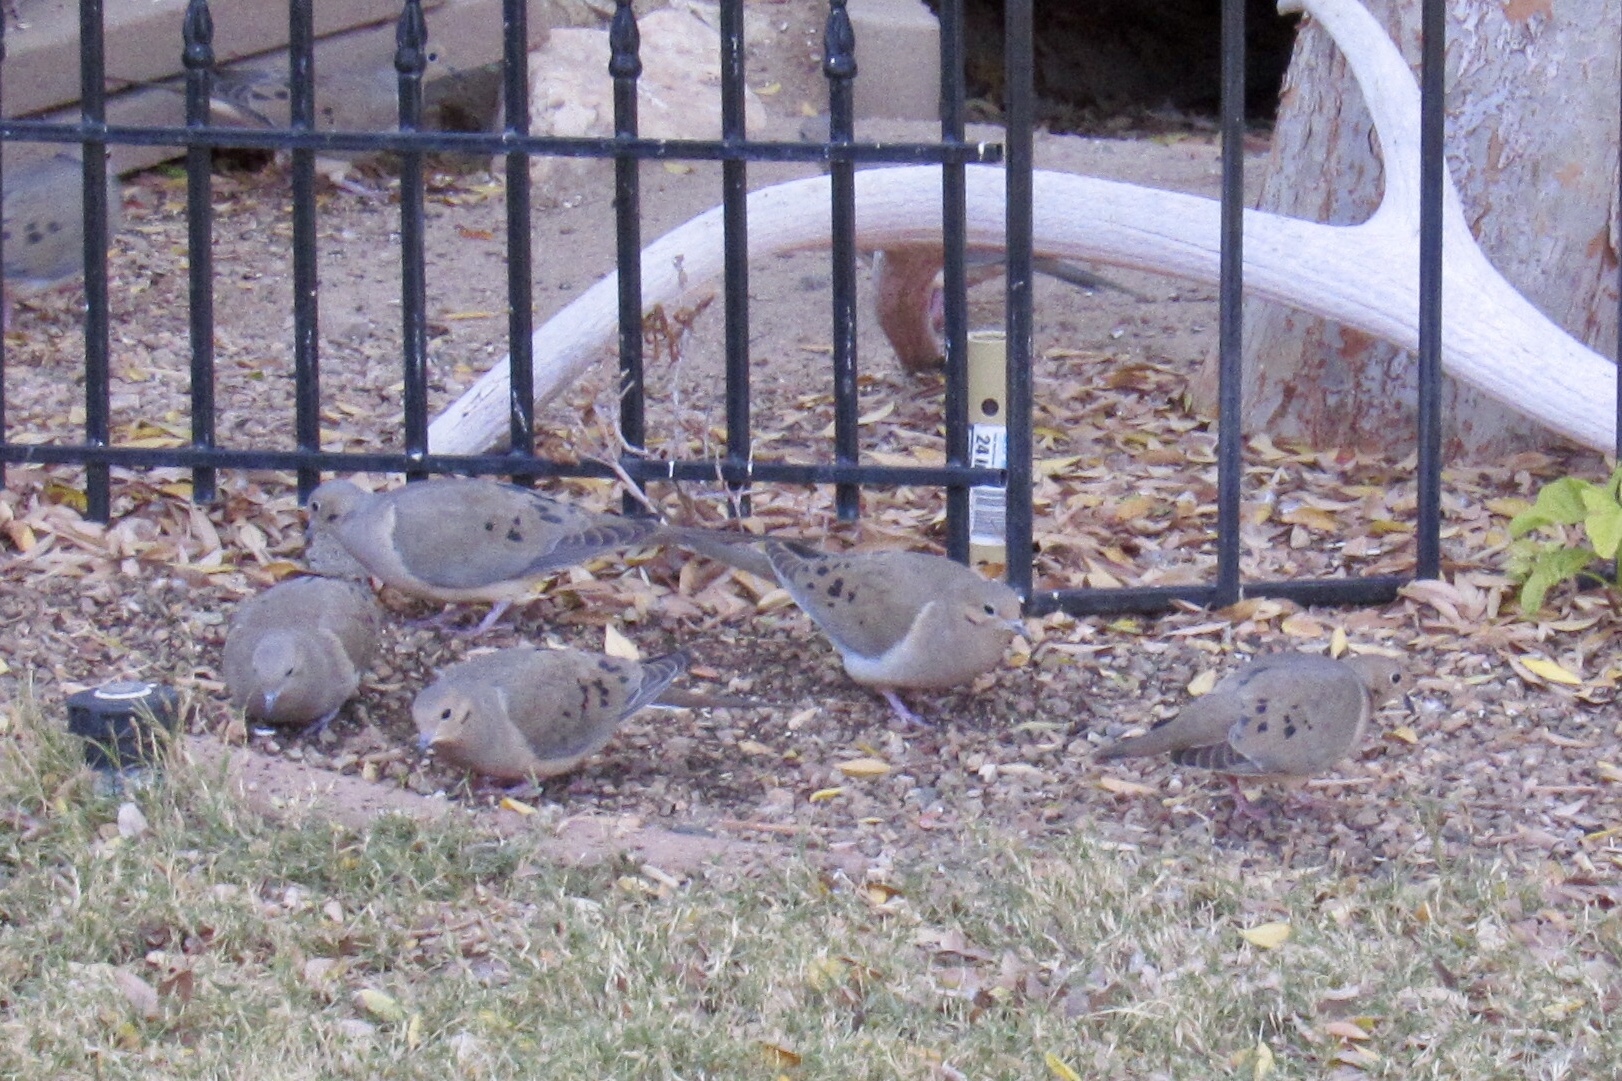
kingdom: Animalia
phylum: Chordata
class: Aves
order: Columbiformes
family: Columbidae
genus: Zenaida
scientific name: Zenaida macroura
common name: Mourning dove
